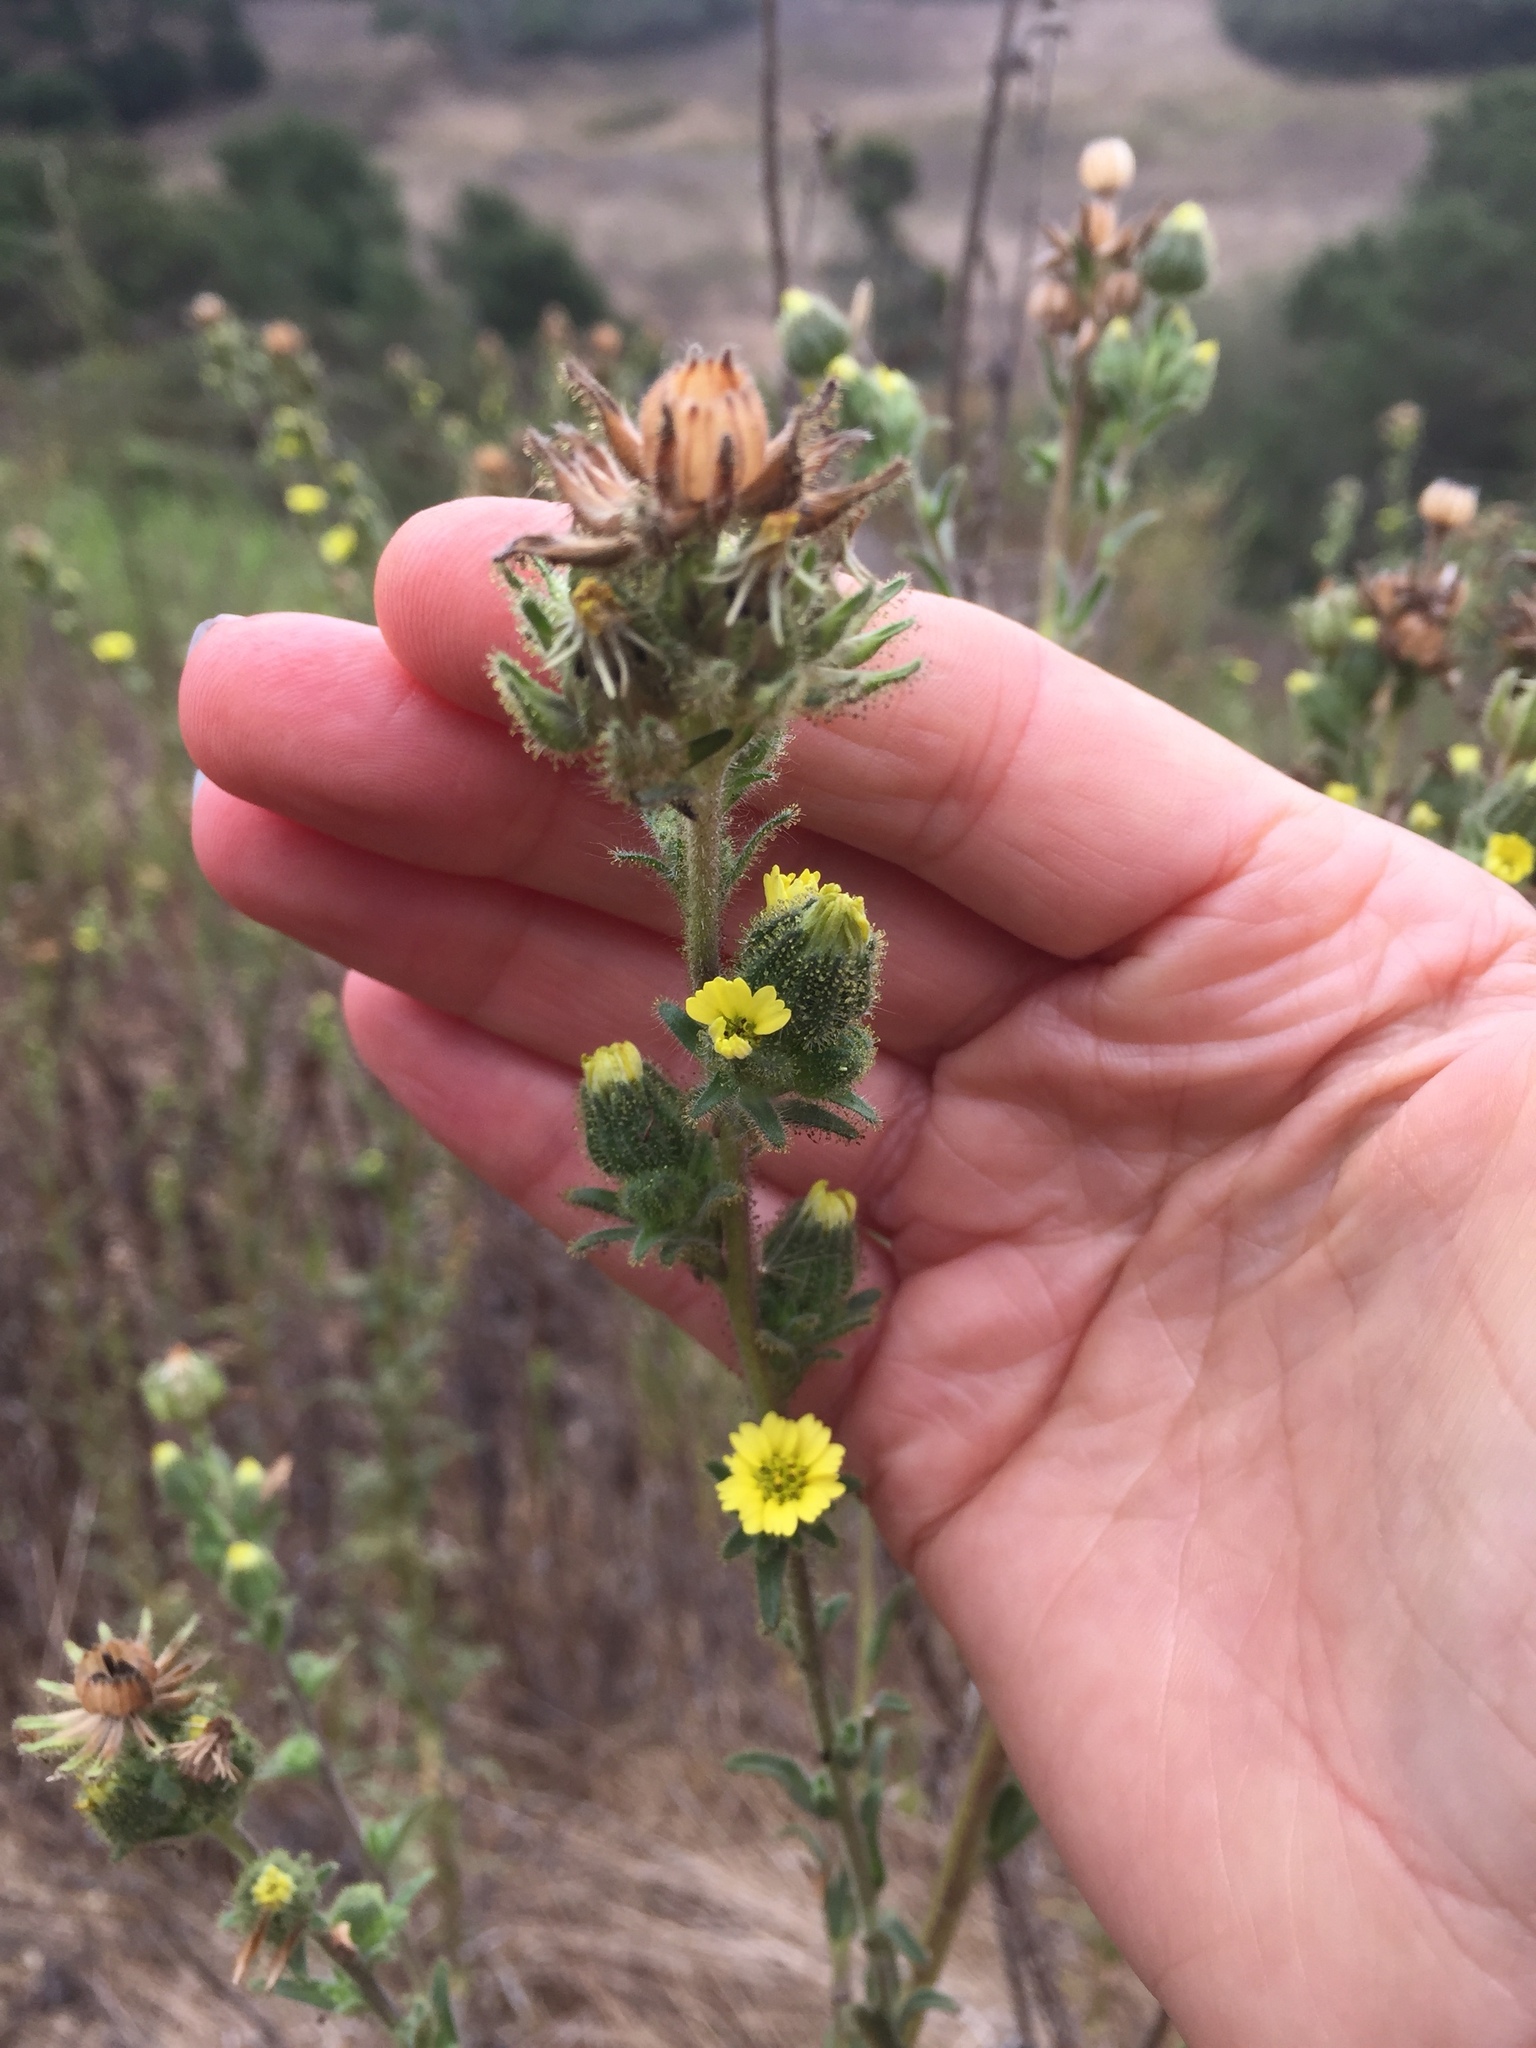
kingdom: Plantae
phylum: Tracheophyta
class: Magnoliopsida
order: Asterales
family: Asteraceae
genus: Madia
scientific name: Madia sativa
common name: Coast tarweed
